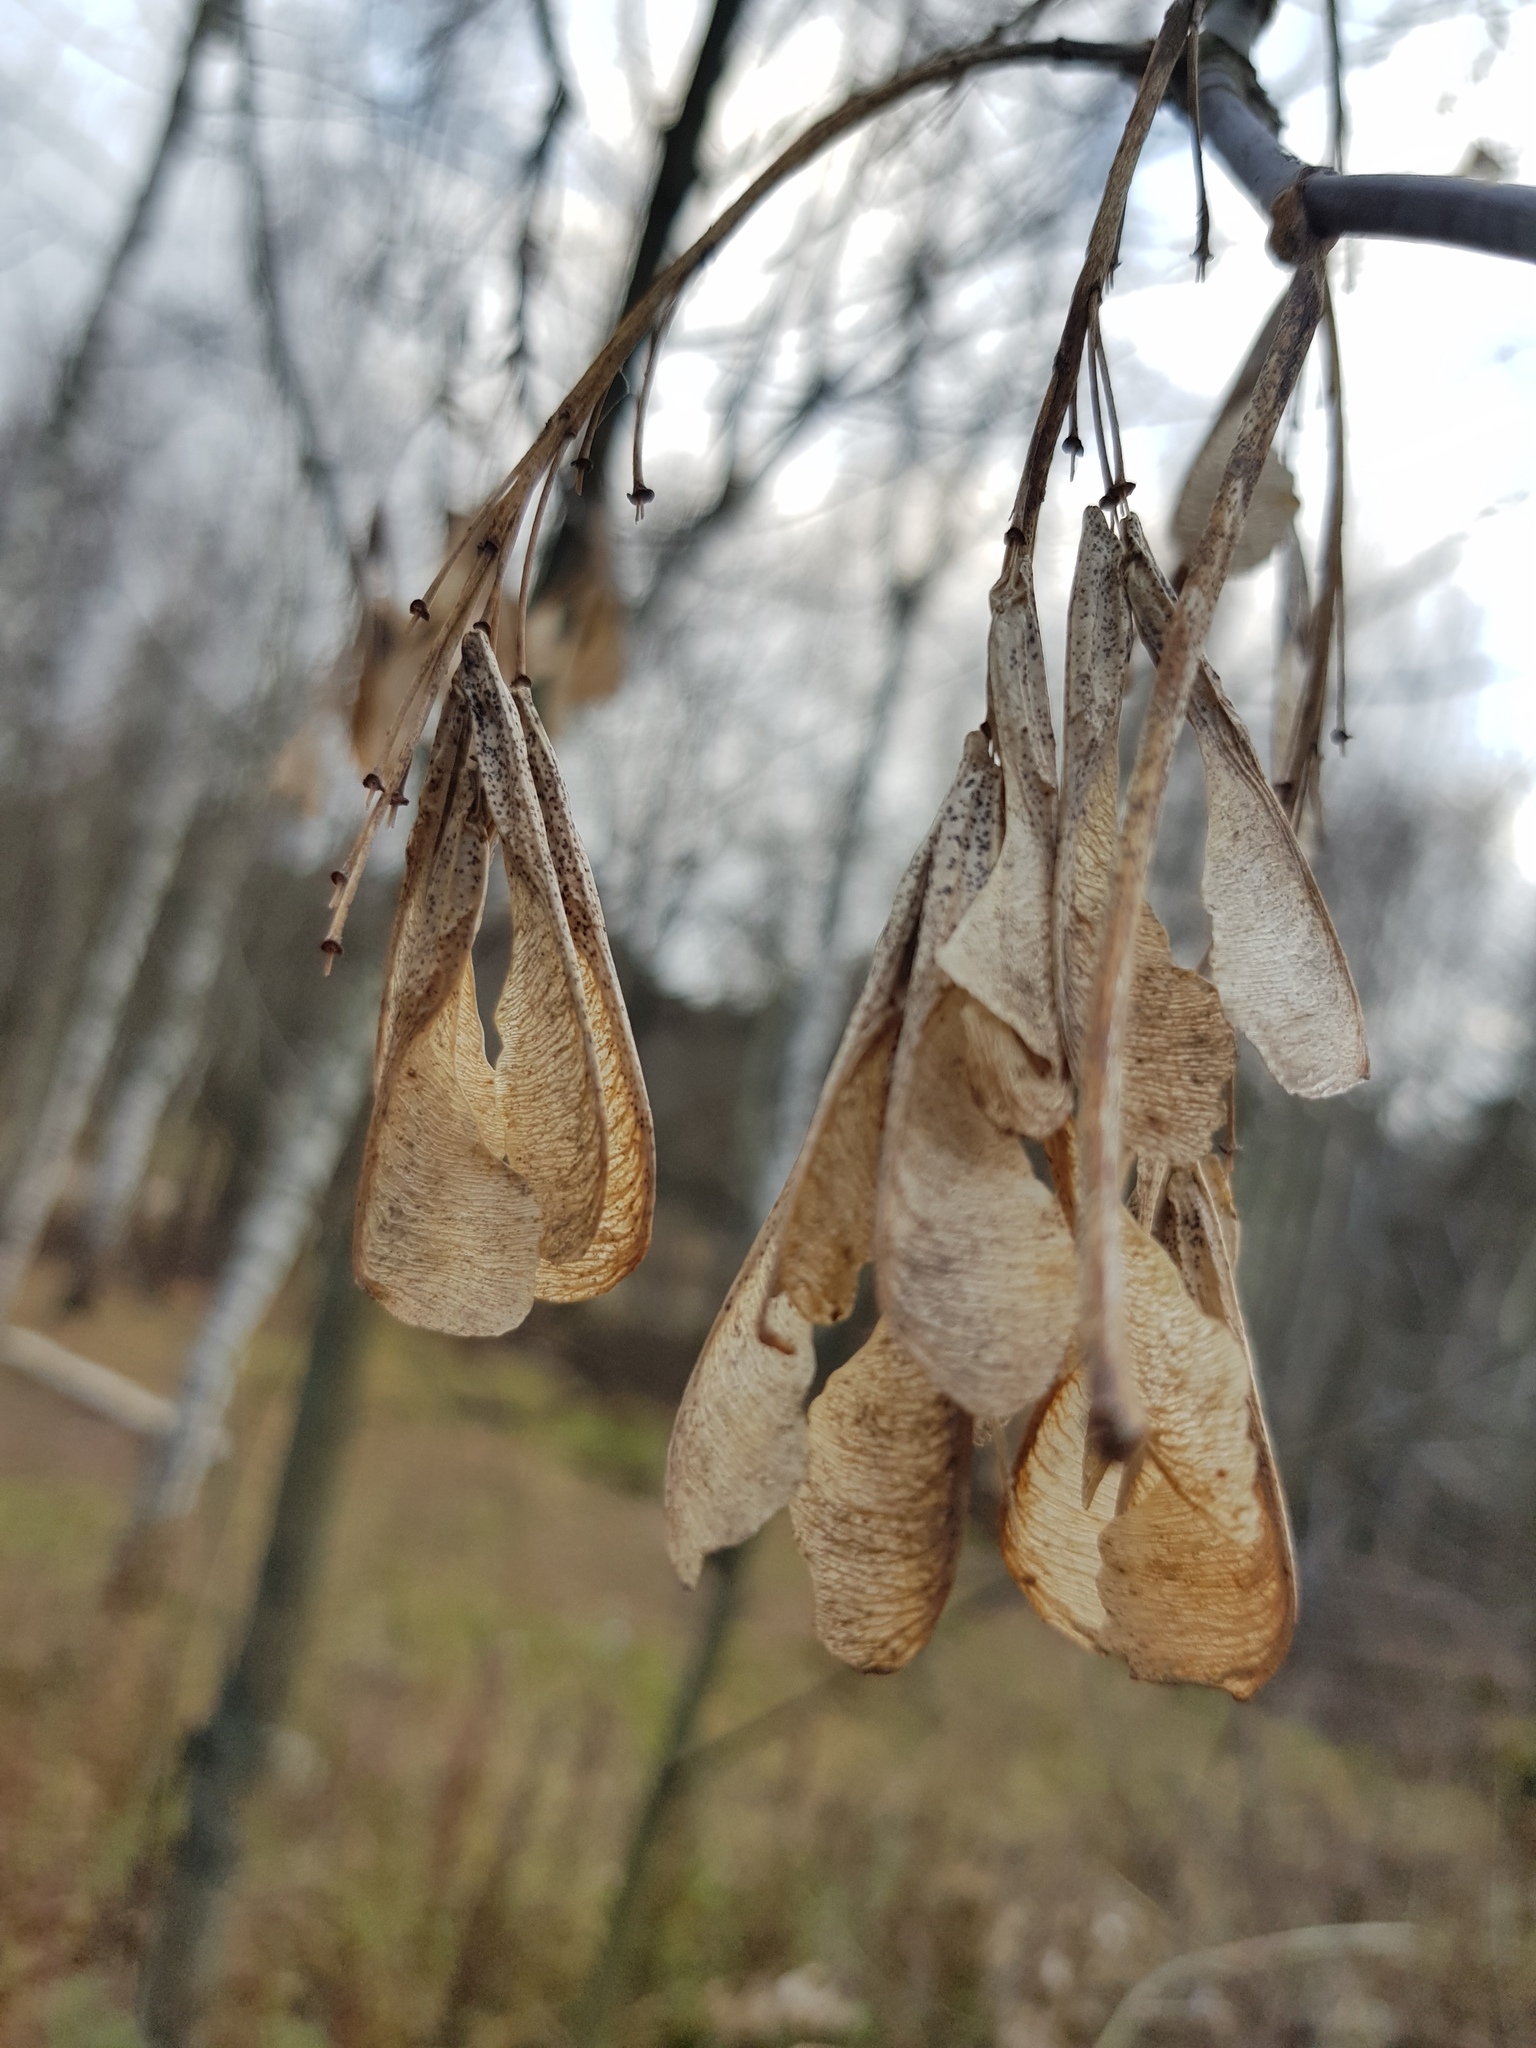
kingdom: Plantae
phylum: Tracheophyta
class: Magnoliopsida
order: Sapindales
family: Sapindaceae
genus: Acer
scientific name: Acer negundo
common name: Ashleaf maple
